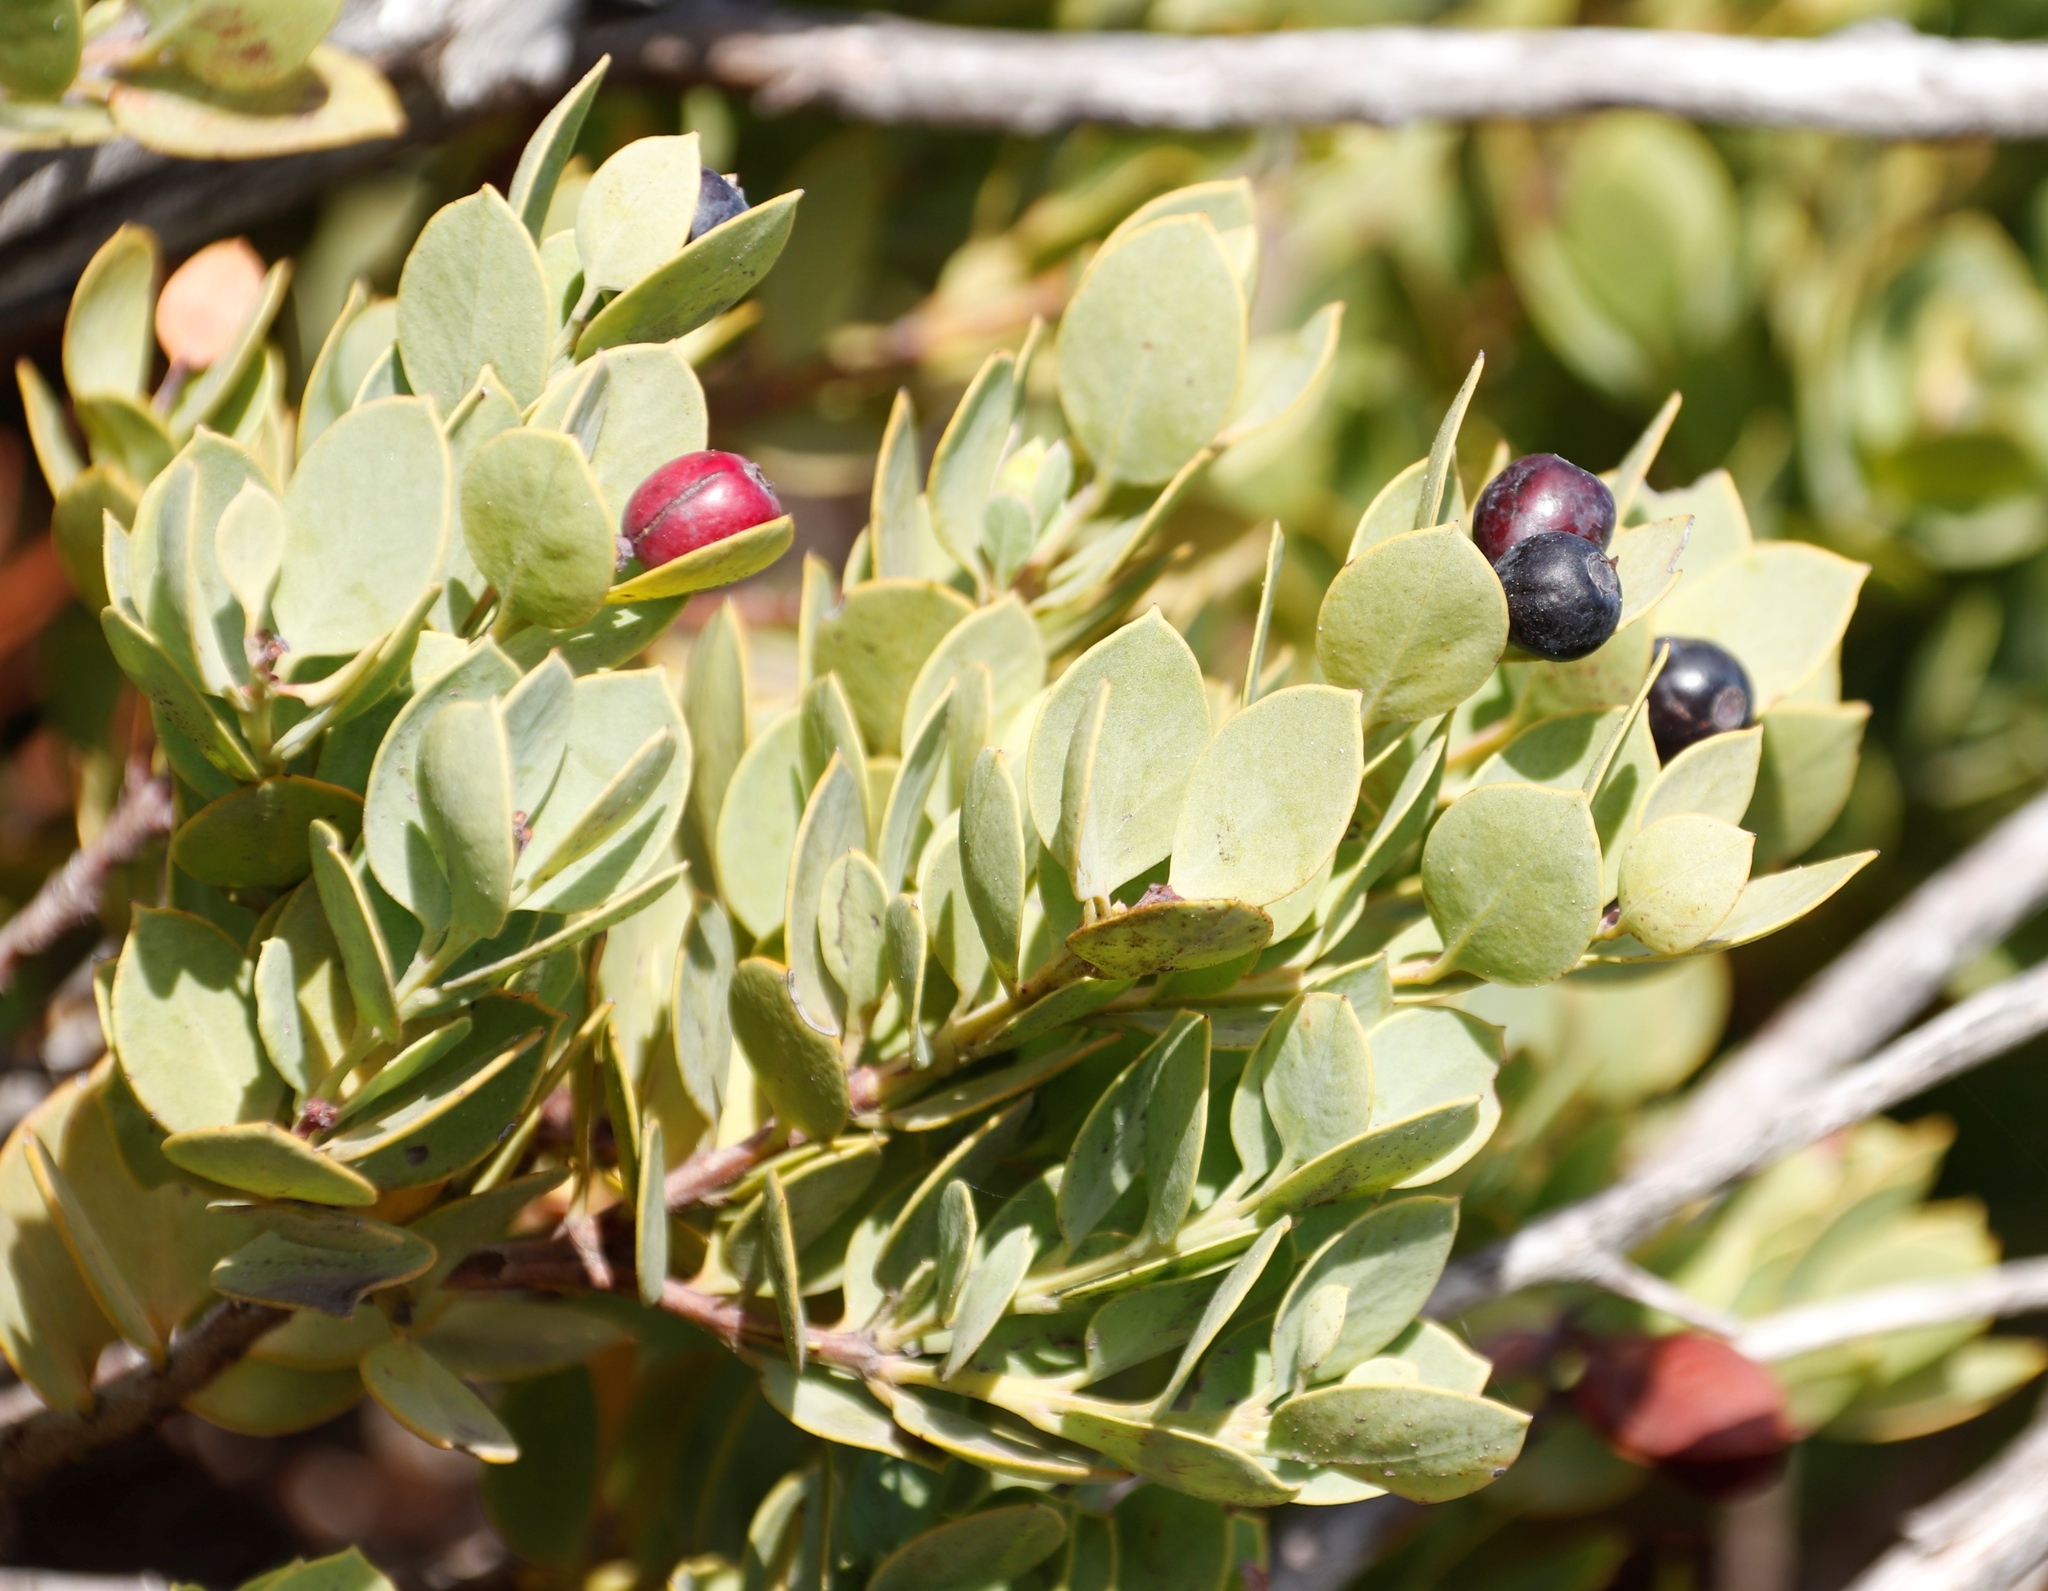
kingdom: Plantae
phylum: Tracheophyta
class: Magnoliopsida
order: Santalales
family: Santalaceae
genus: Osyris
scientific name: Osyris compressa
